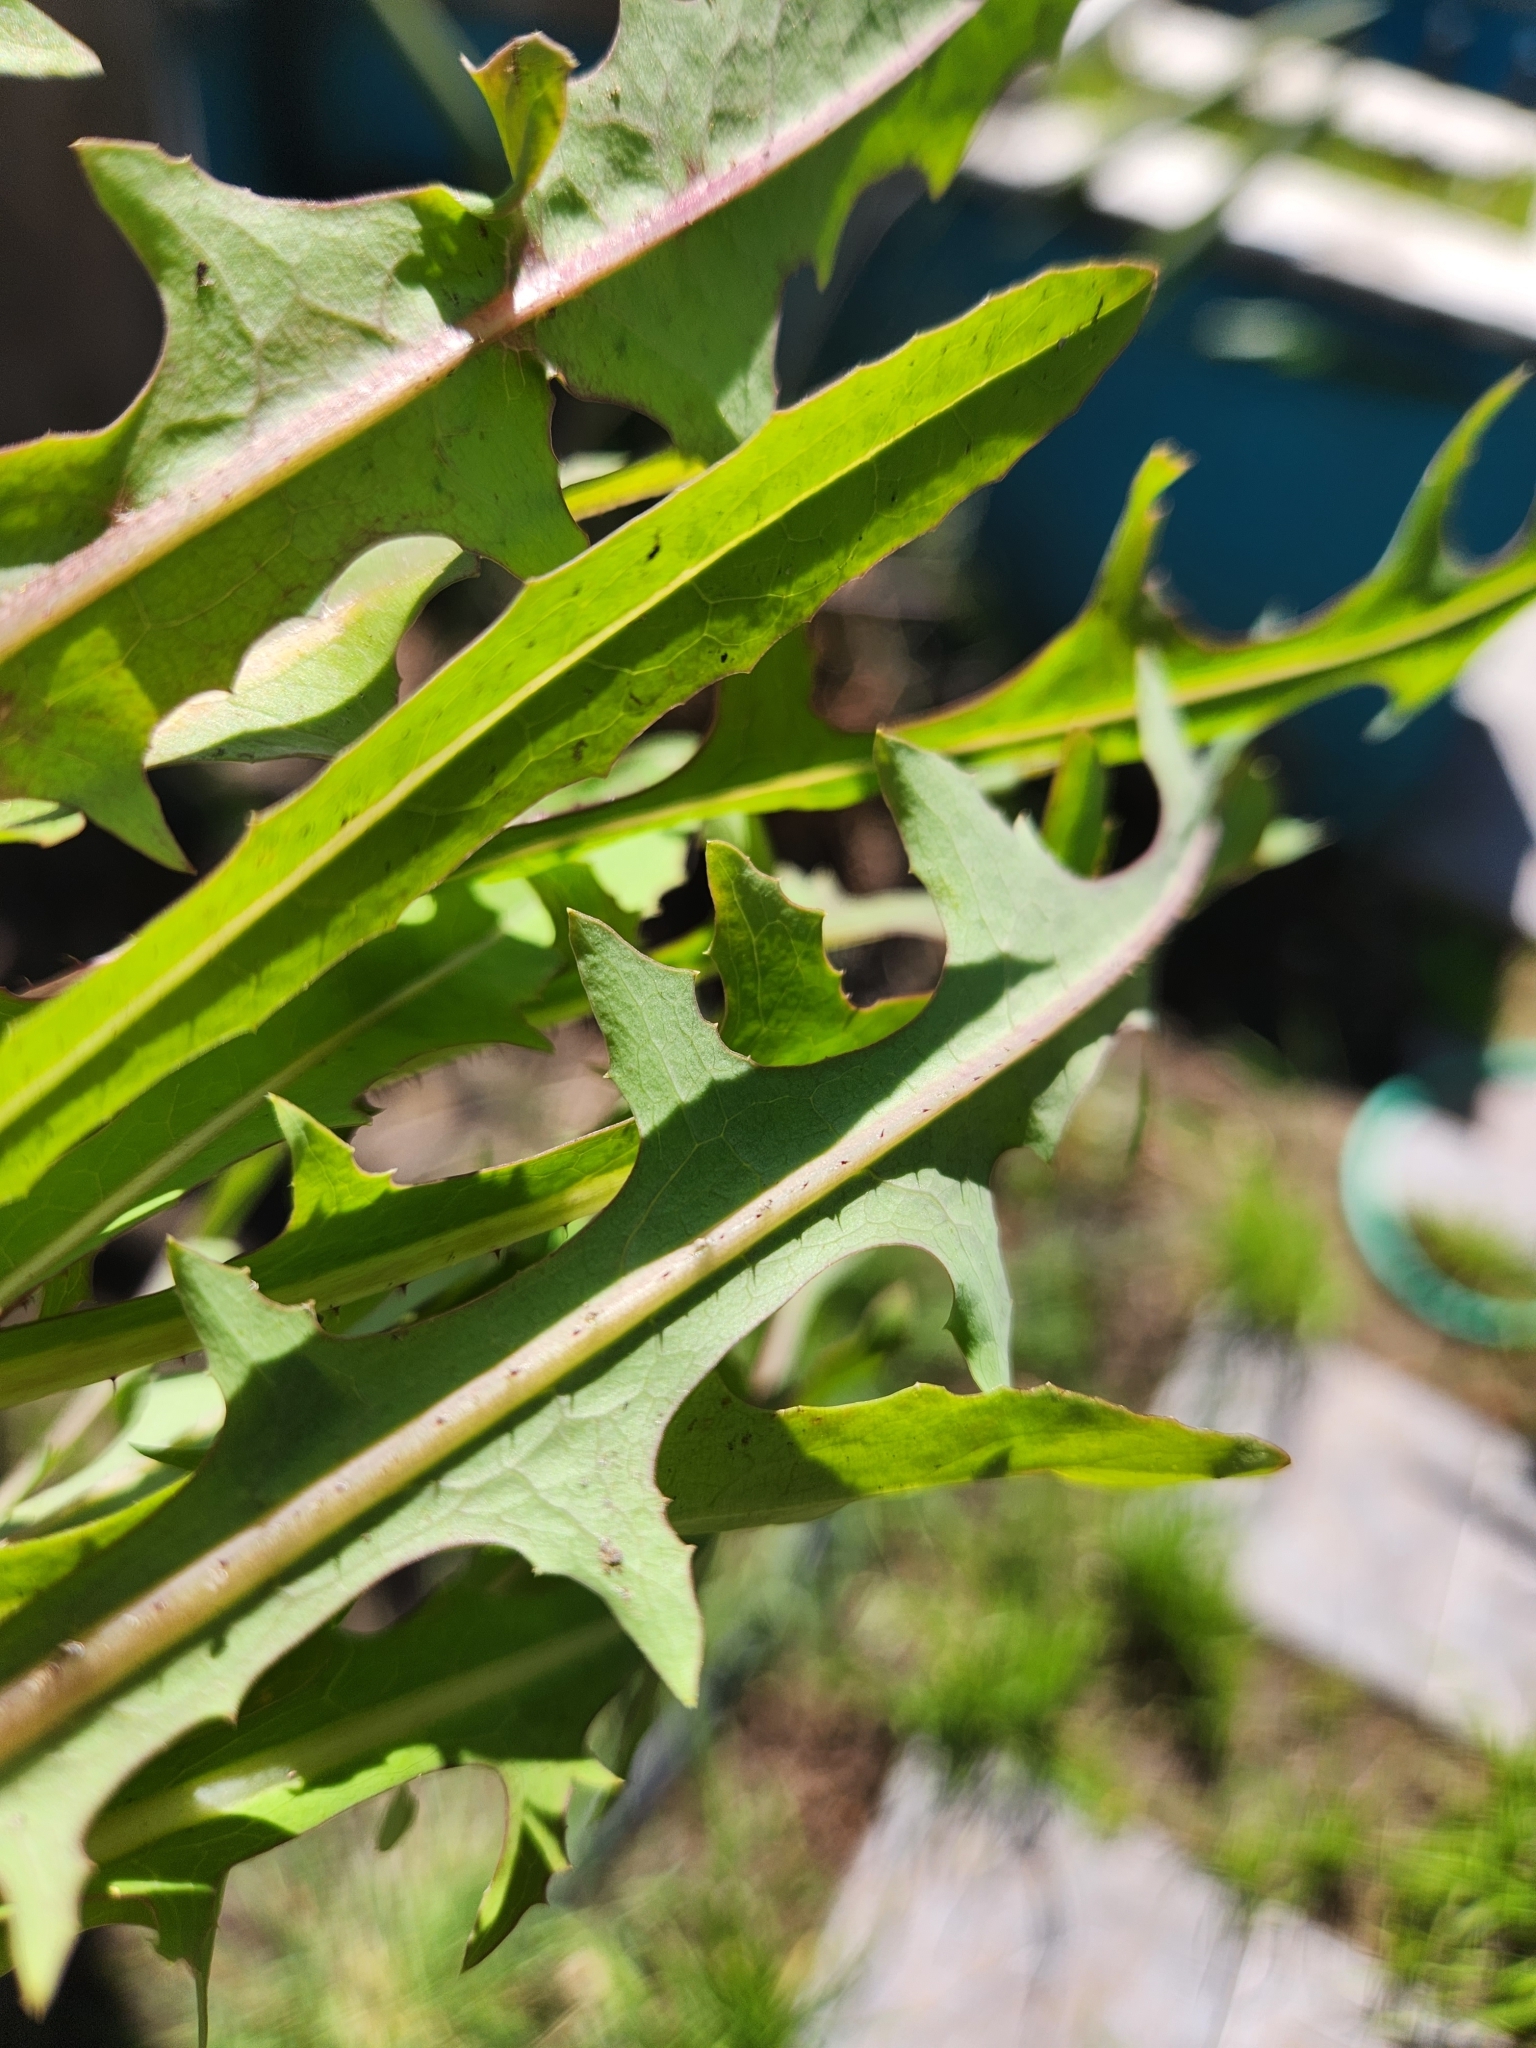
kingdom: Plantae
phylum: Tracheophyta
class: Magnoliopsida
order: Asterales
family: Asteraceae
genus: Lactuca
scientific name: Lactuca serriola
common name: Prickly lettuce
